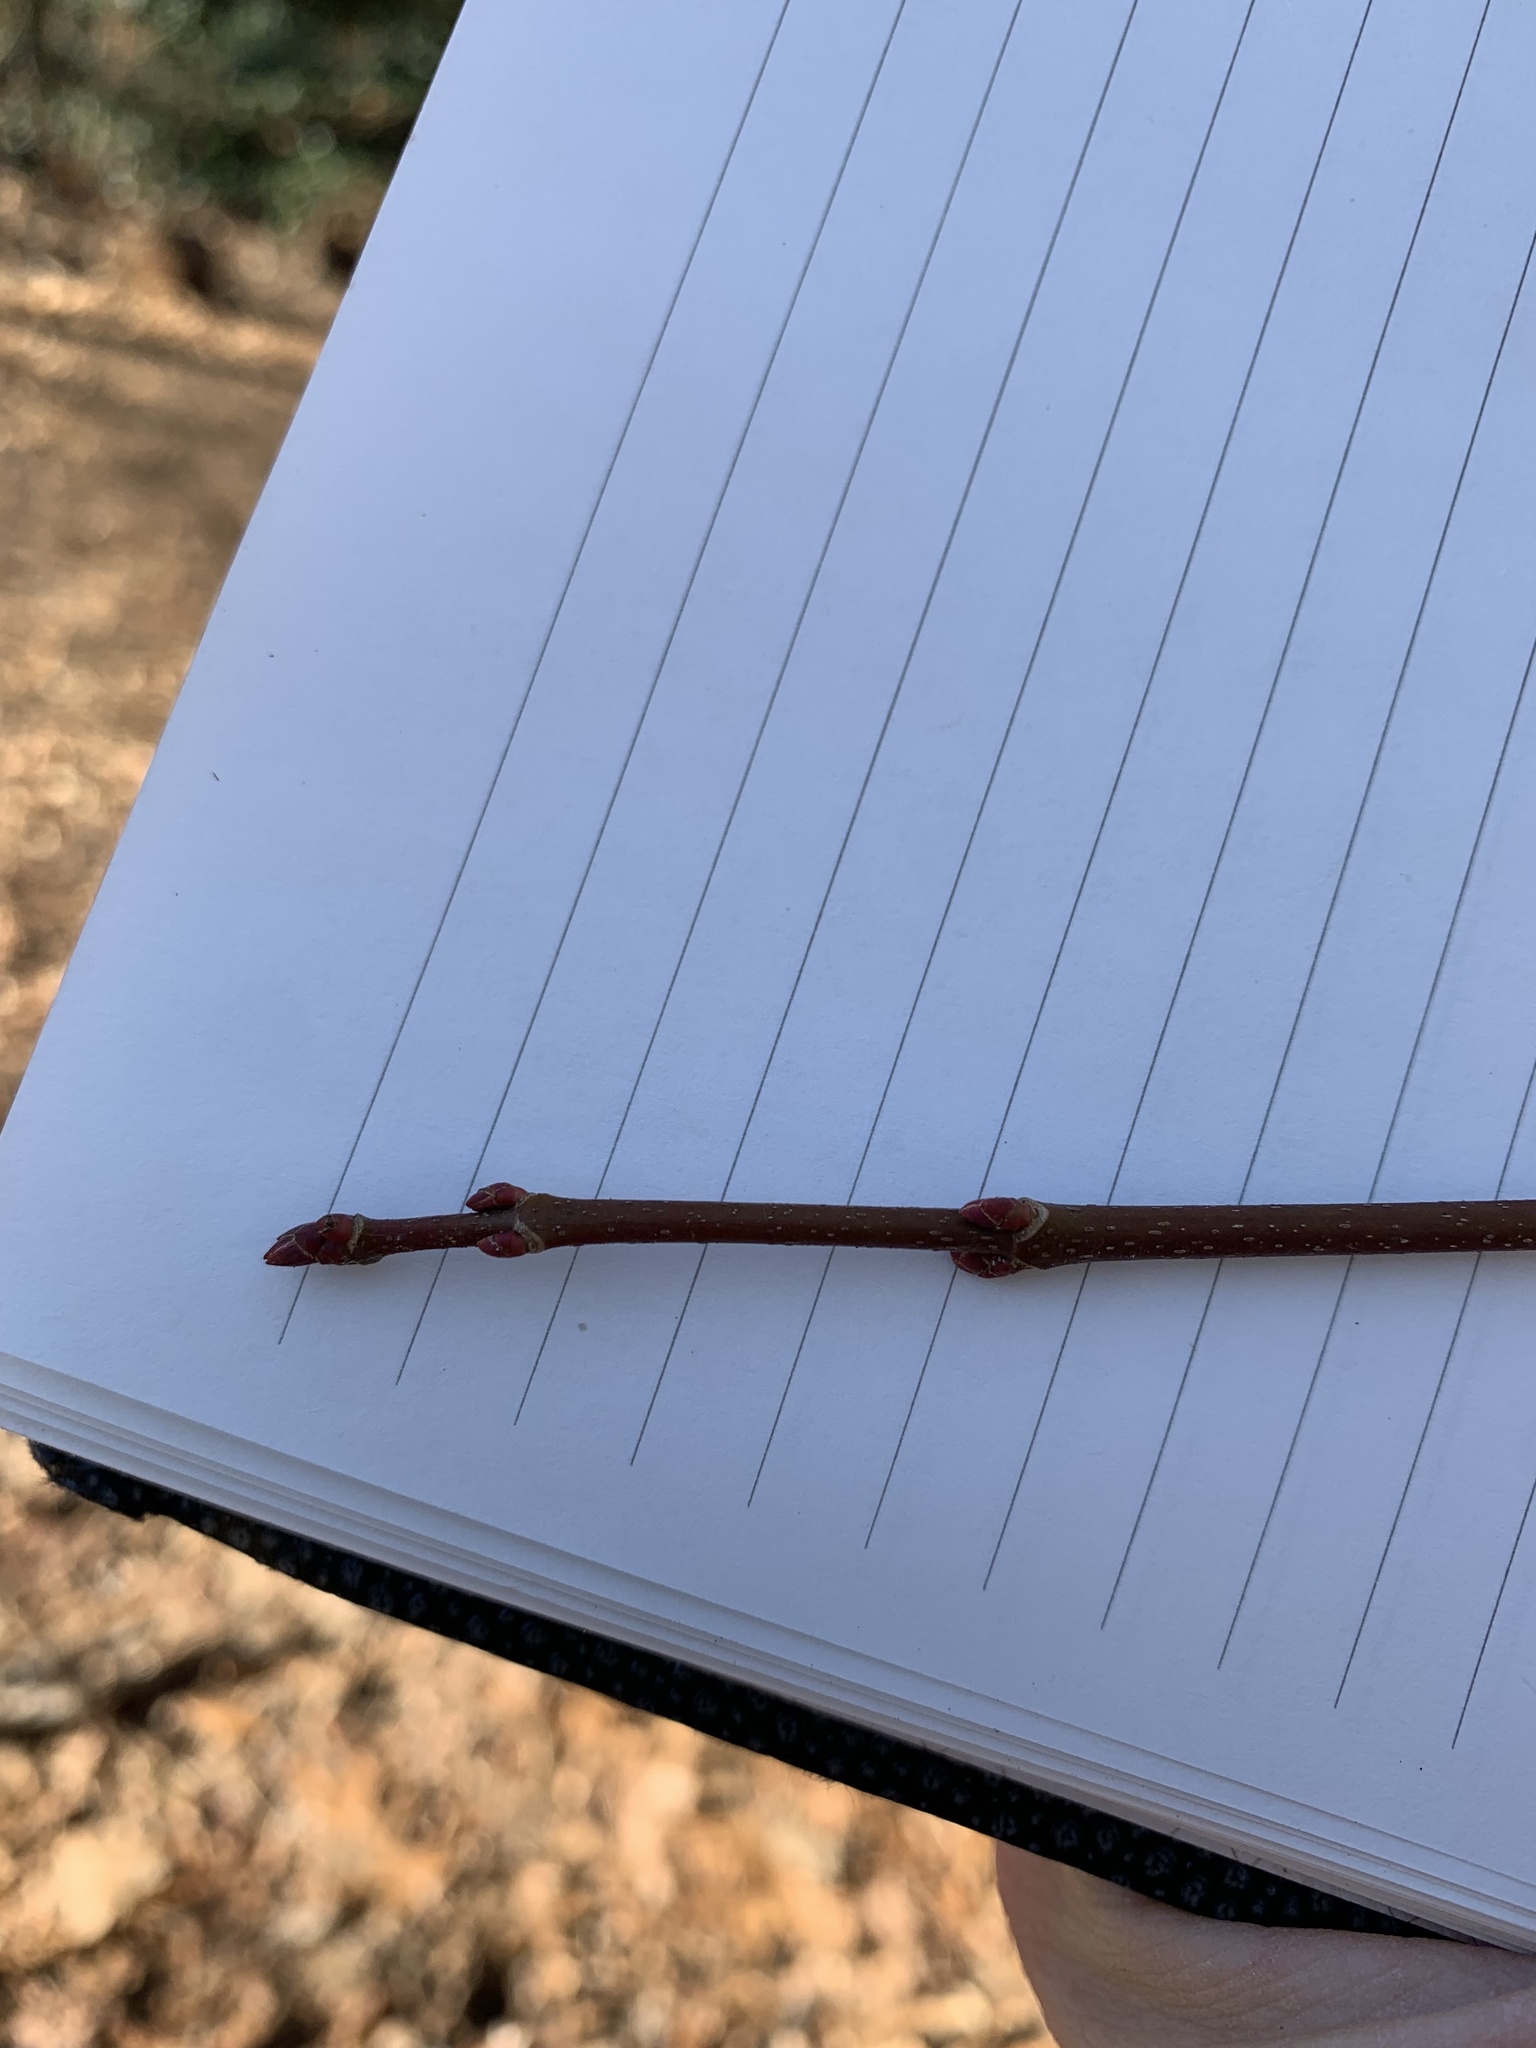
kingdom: Plantae
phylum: Tracheophyta
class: Magnoliopsida
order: Sapindales
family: Sapindaceae
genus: Acer
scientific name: Acer rubrum
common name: Red maple
